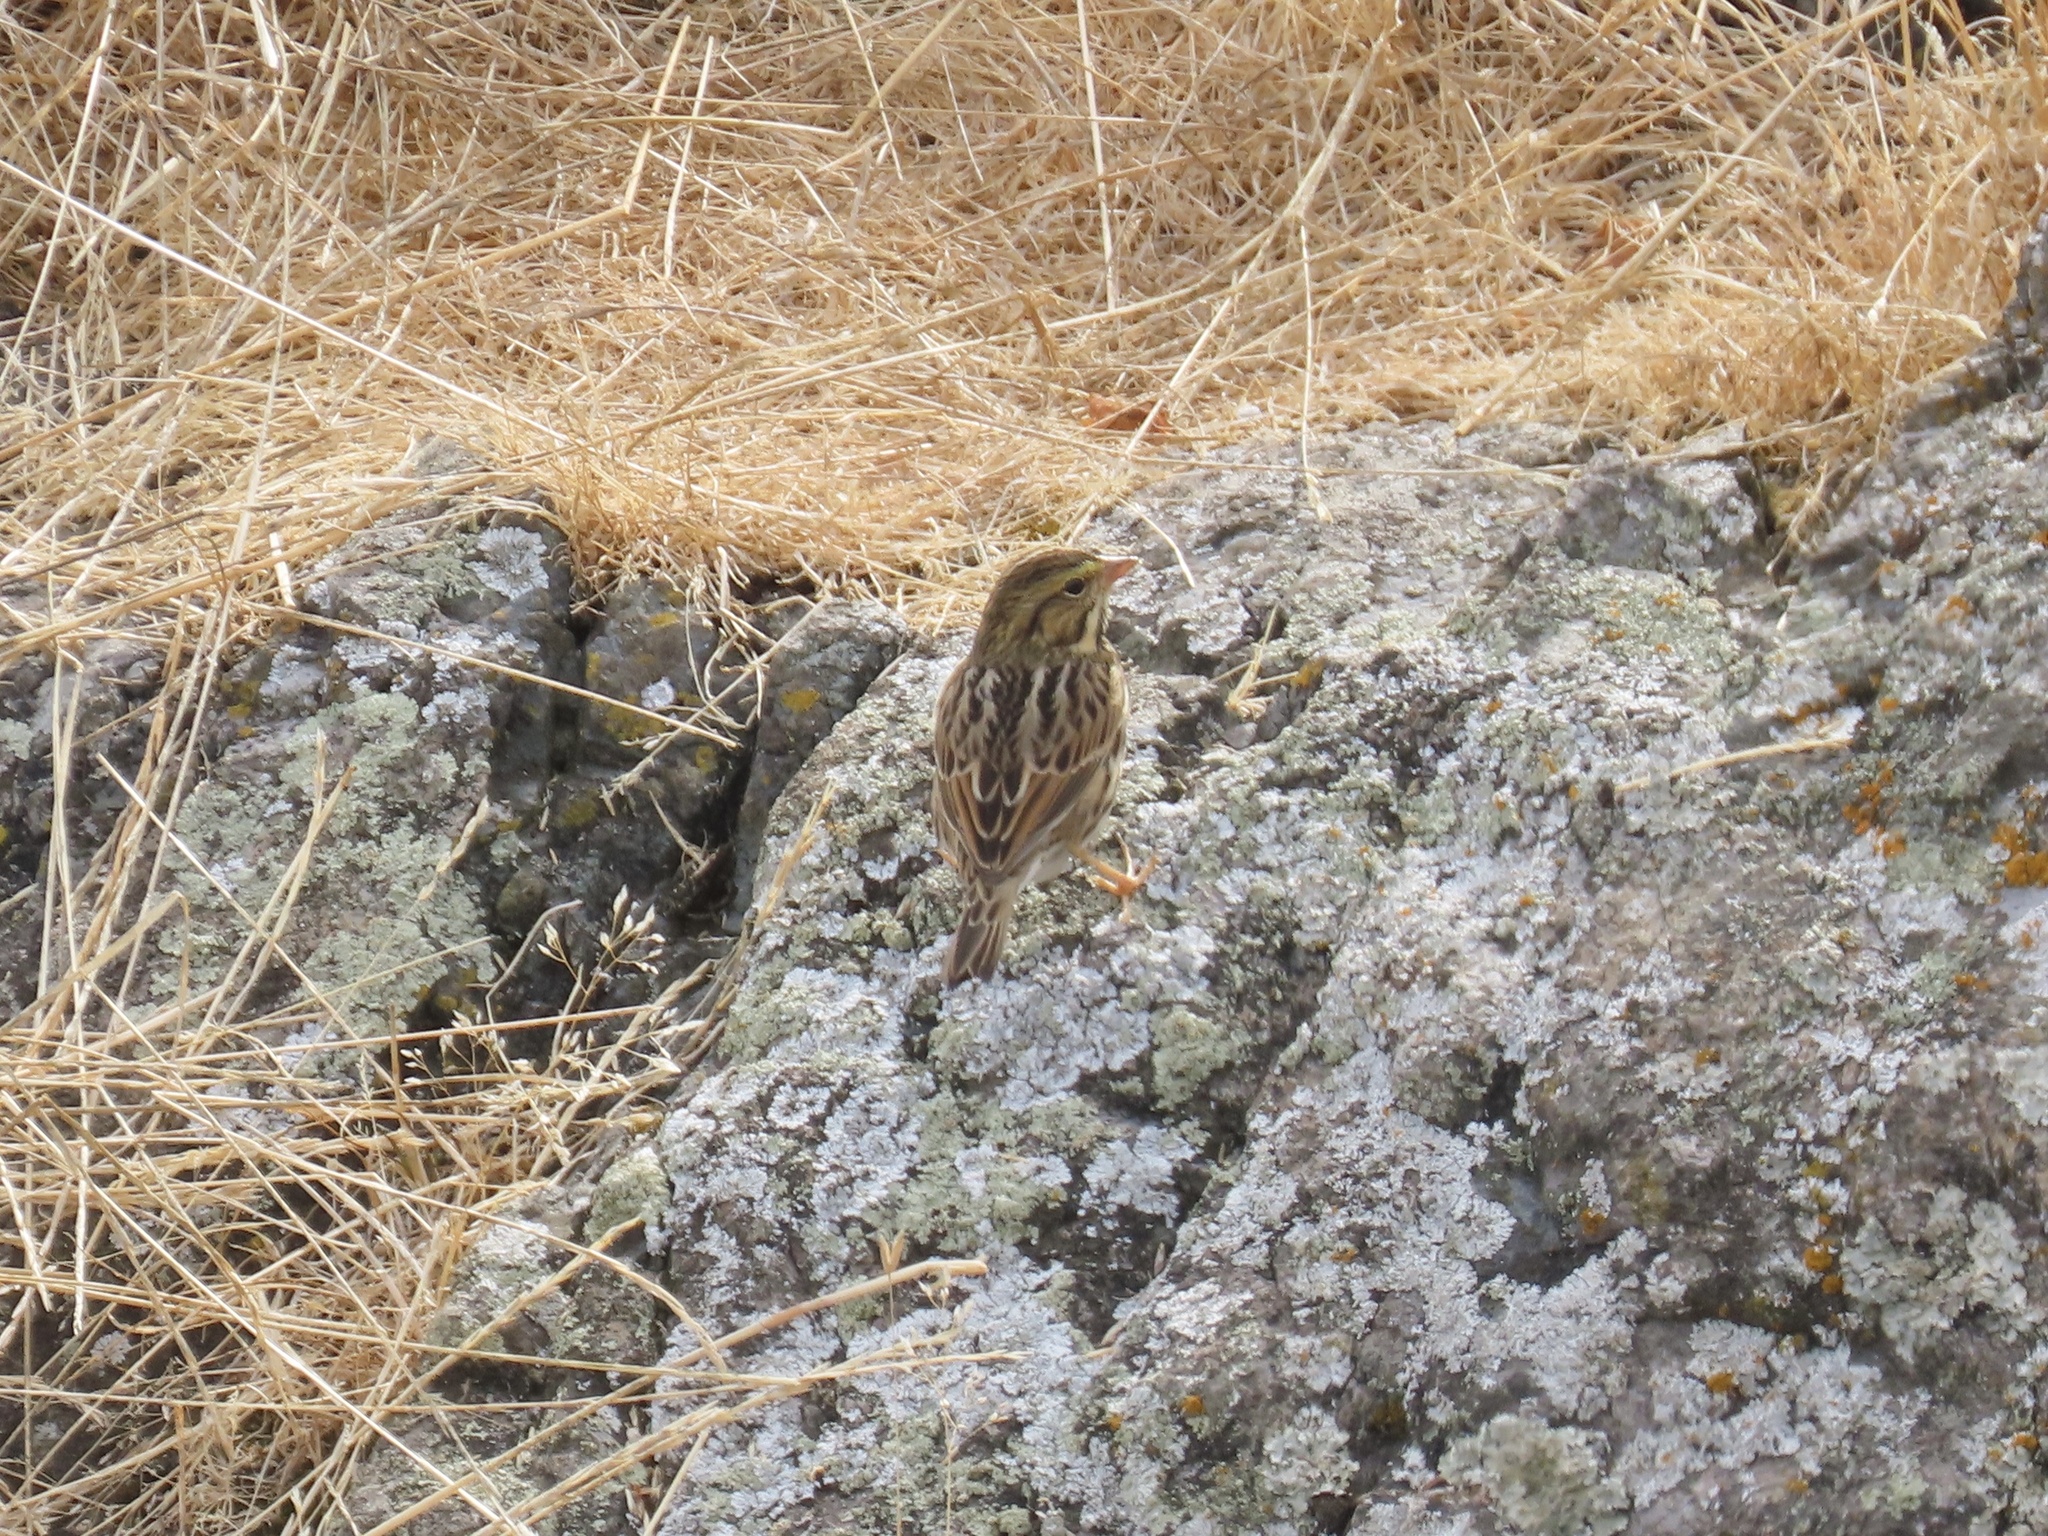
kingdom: Animalia
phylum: Chordata
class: Aves
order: Passeriformes
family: Passerellidae
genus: Passerculus
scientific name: Passerculus sandwichensis
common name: Savannah sparrow
